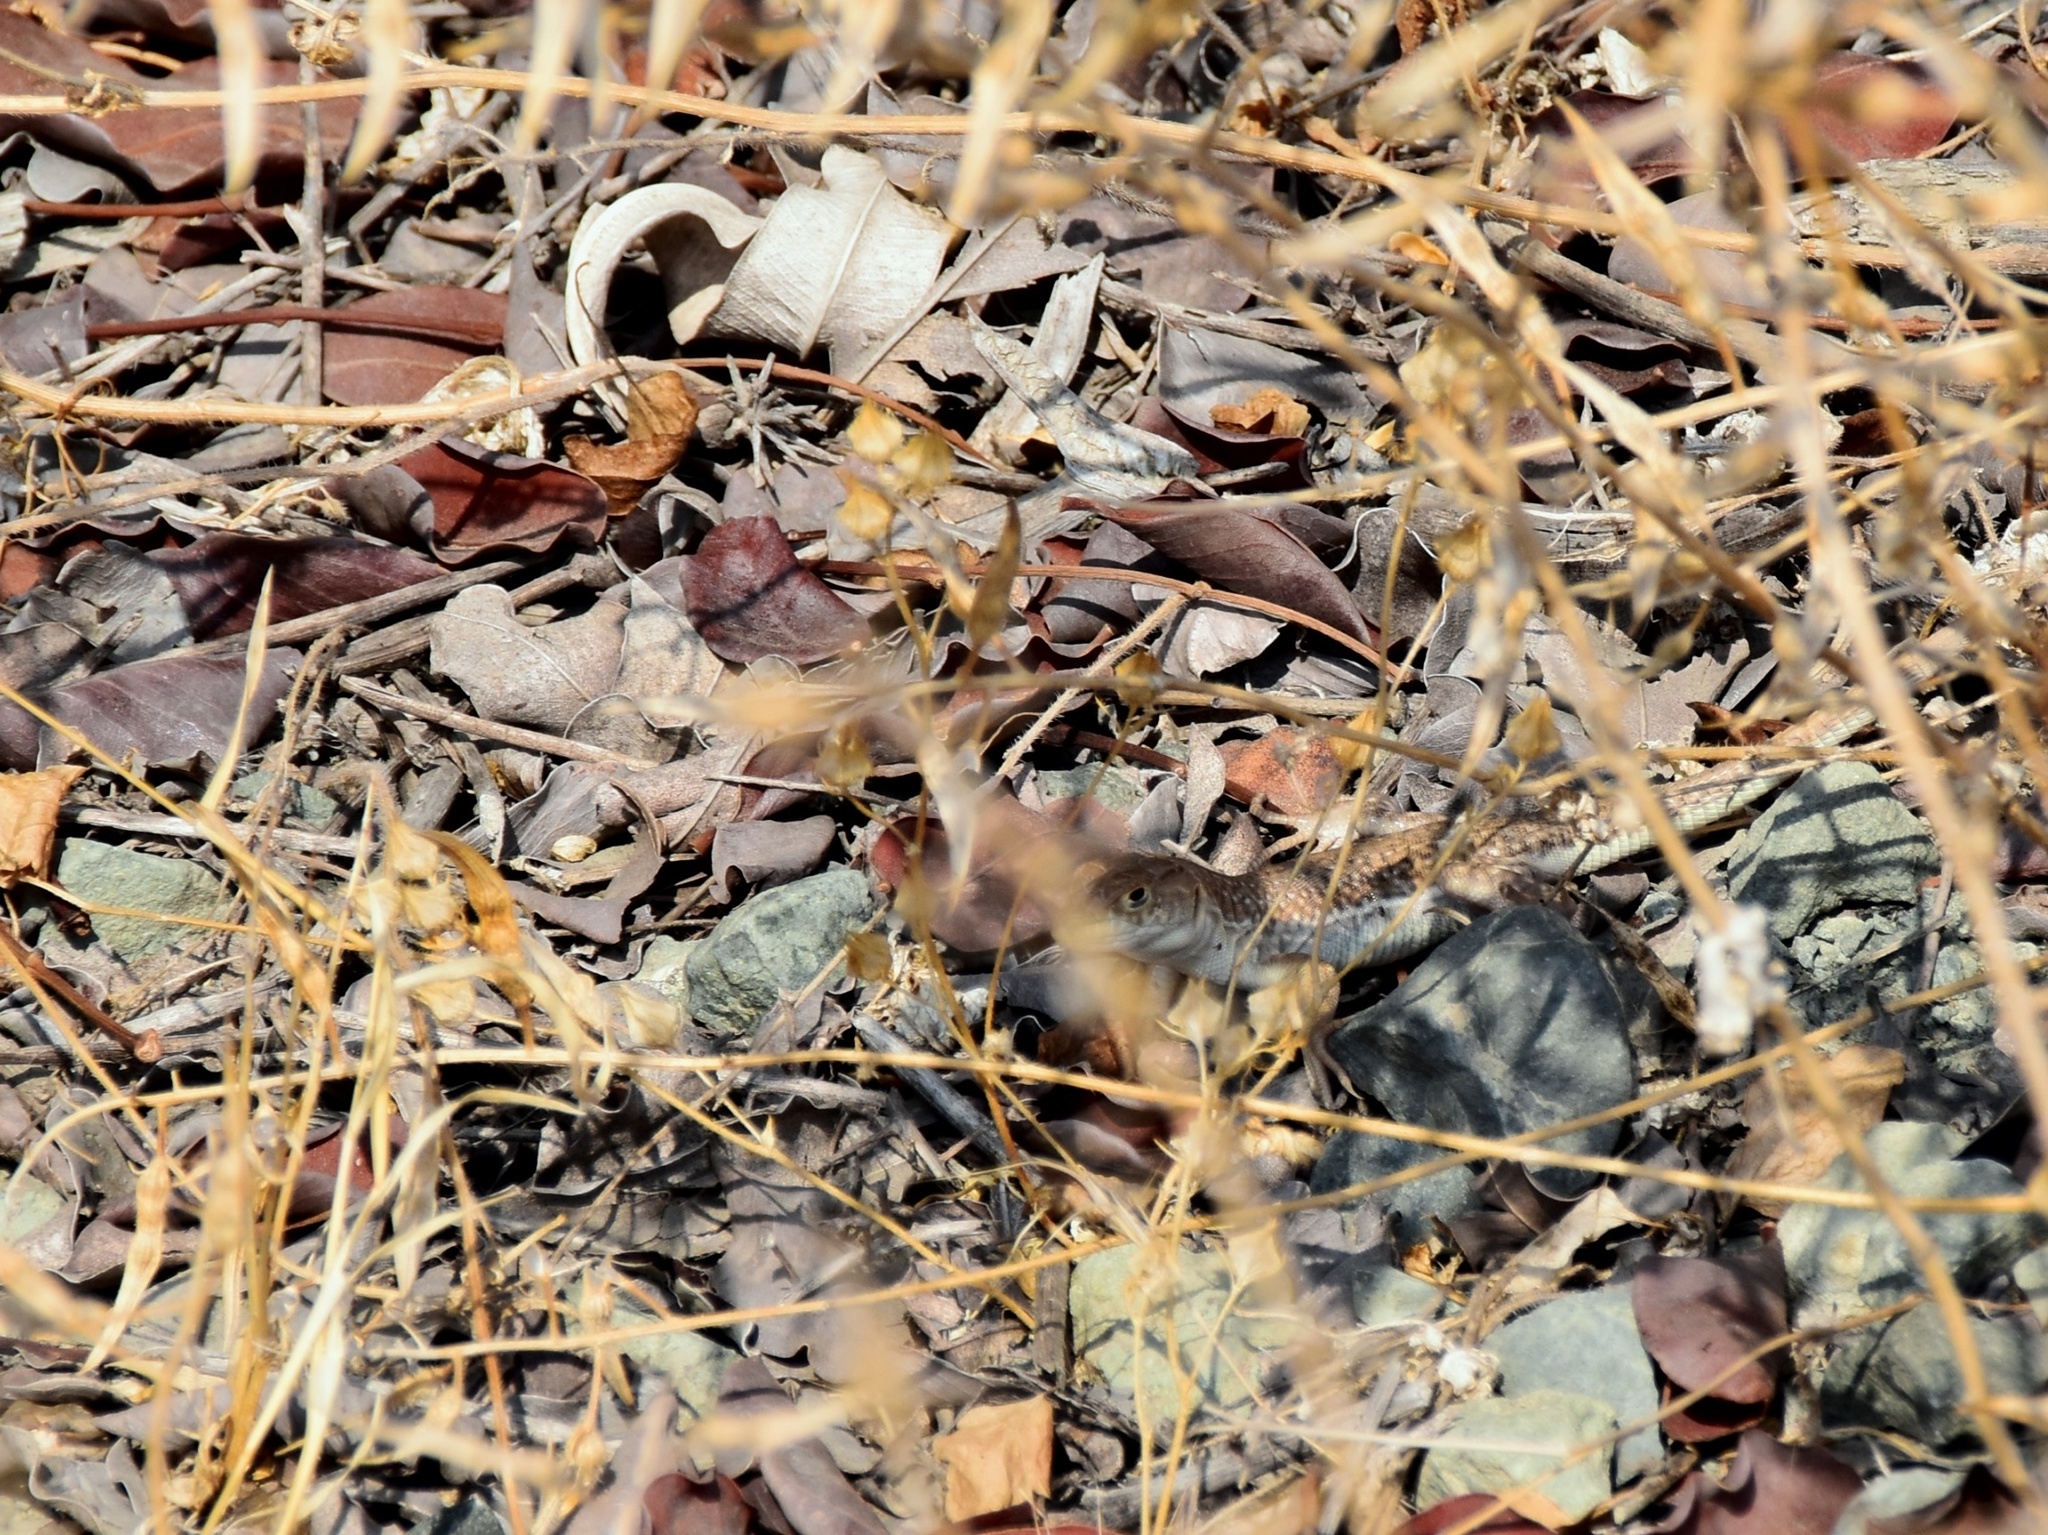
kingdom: Animalia
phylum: Chordata
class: Squamata
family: Lacertidae
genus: Acanthodactylus
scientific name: Acanthodactylus schreiberi
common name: Schreiber's fringe-fingered lizard
